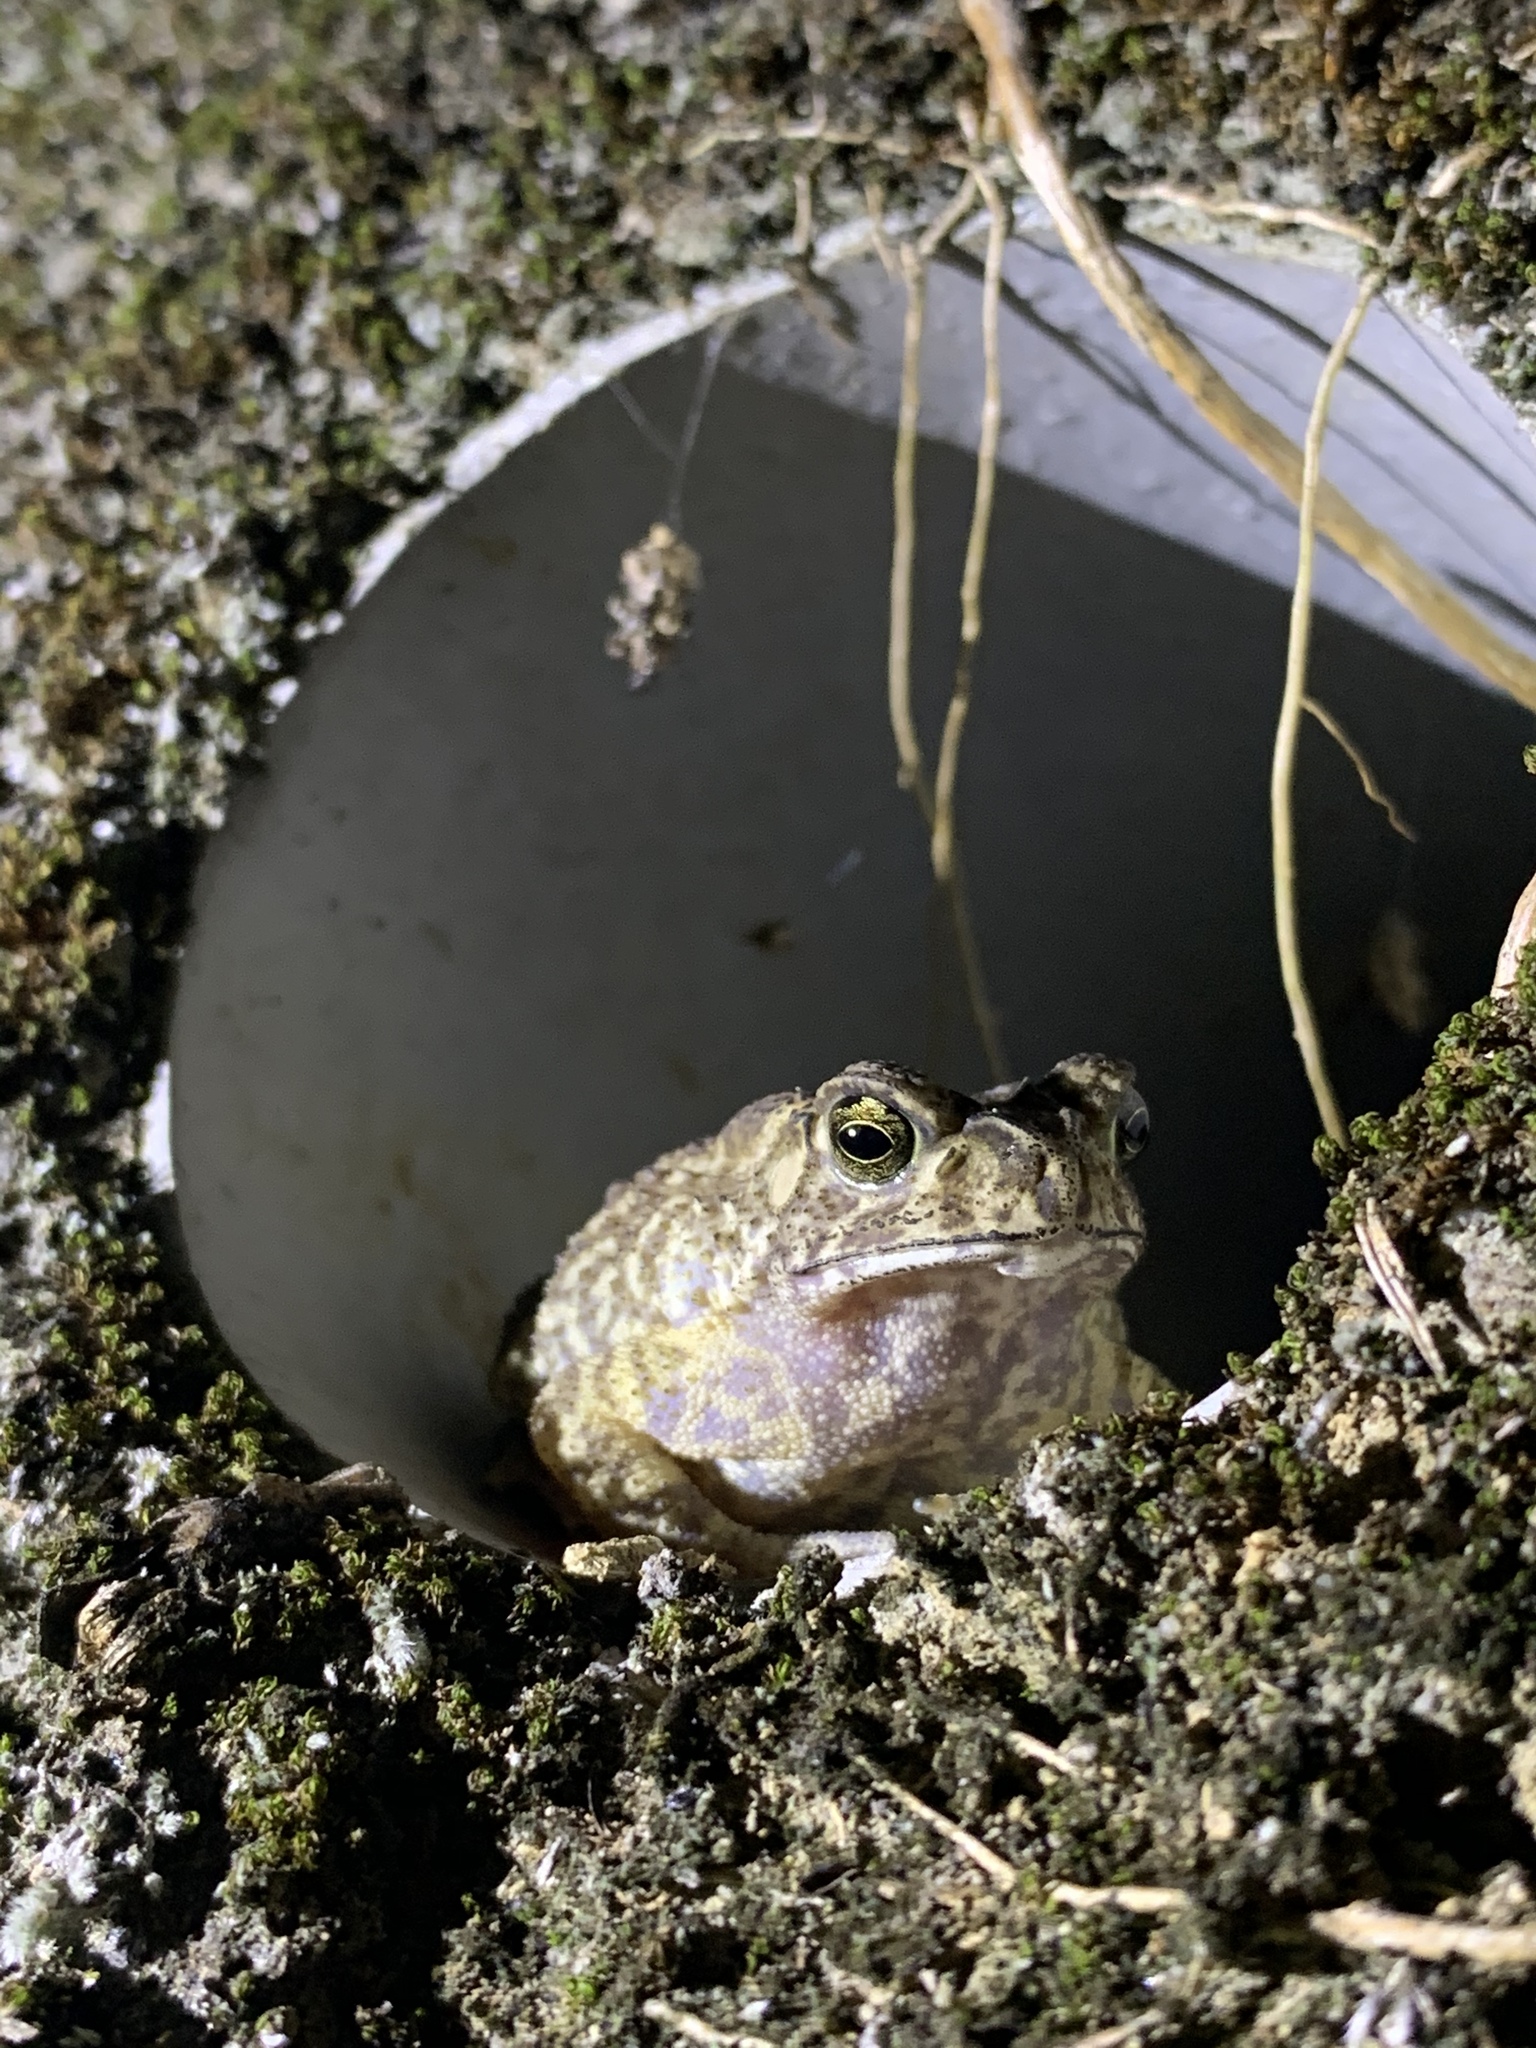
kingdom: Animalia
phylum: Chordata
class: Amphibia
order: Anura
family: Bufonidae
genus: Duttaphrynus
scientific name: Duttaphrynus melanostictus
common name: Common sunda toad
